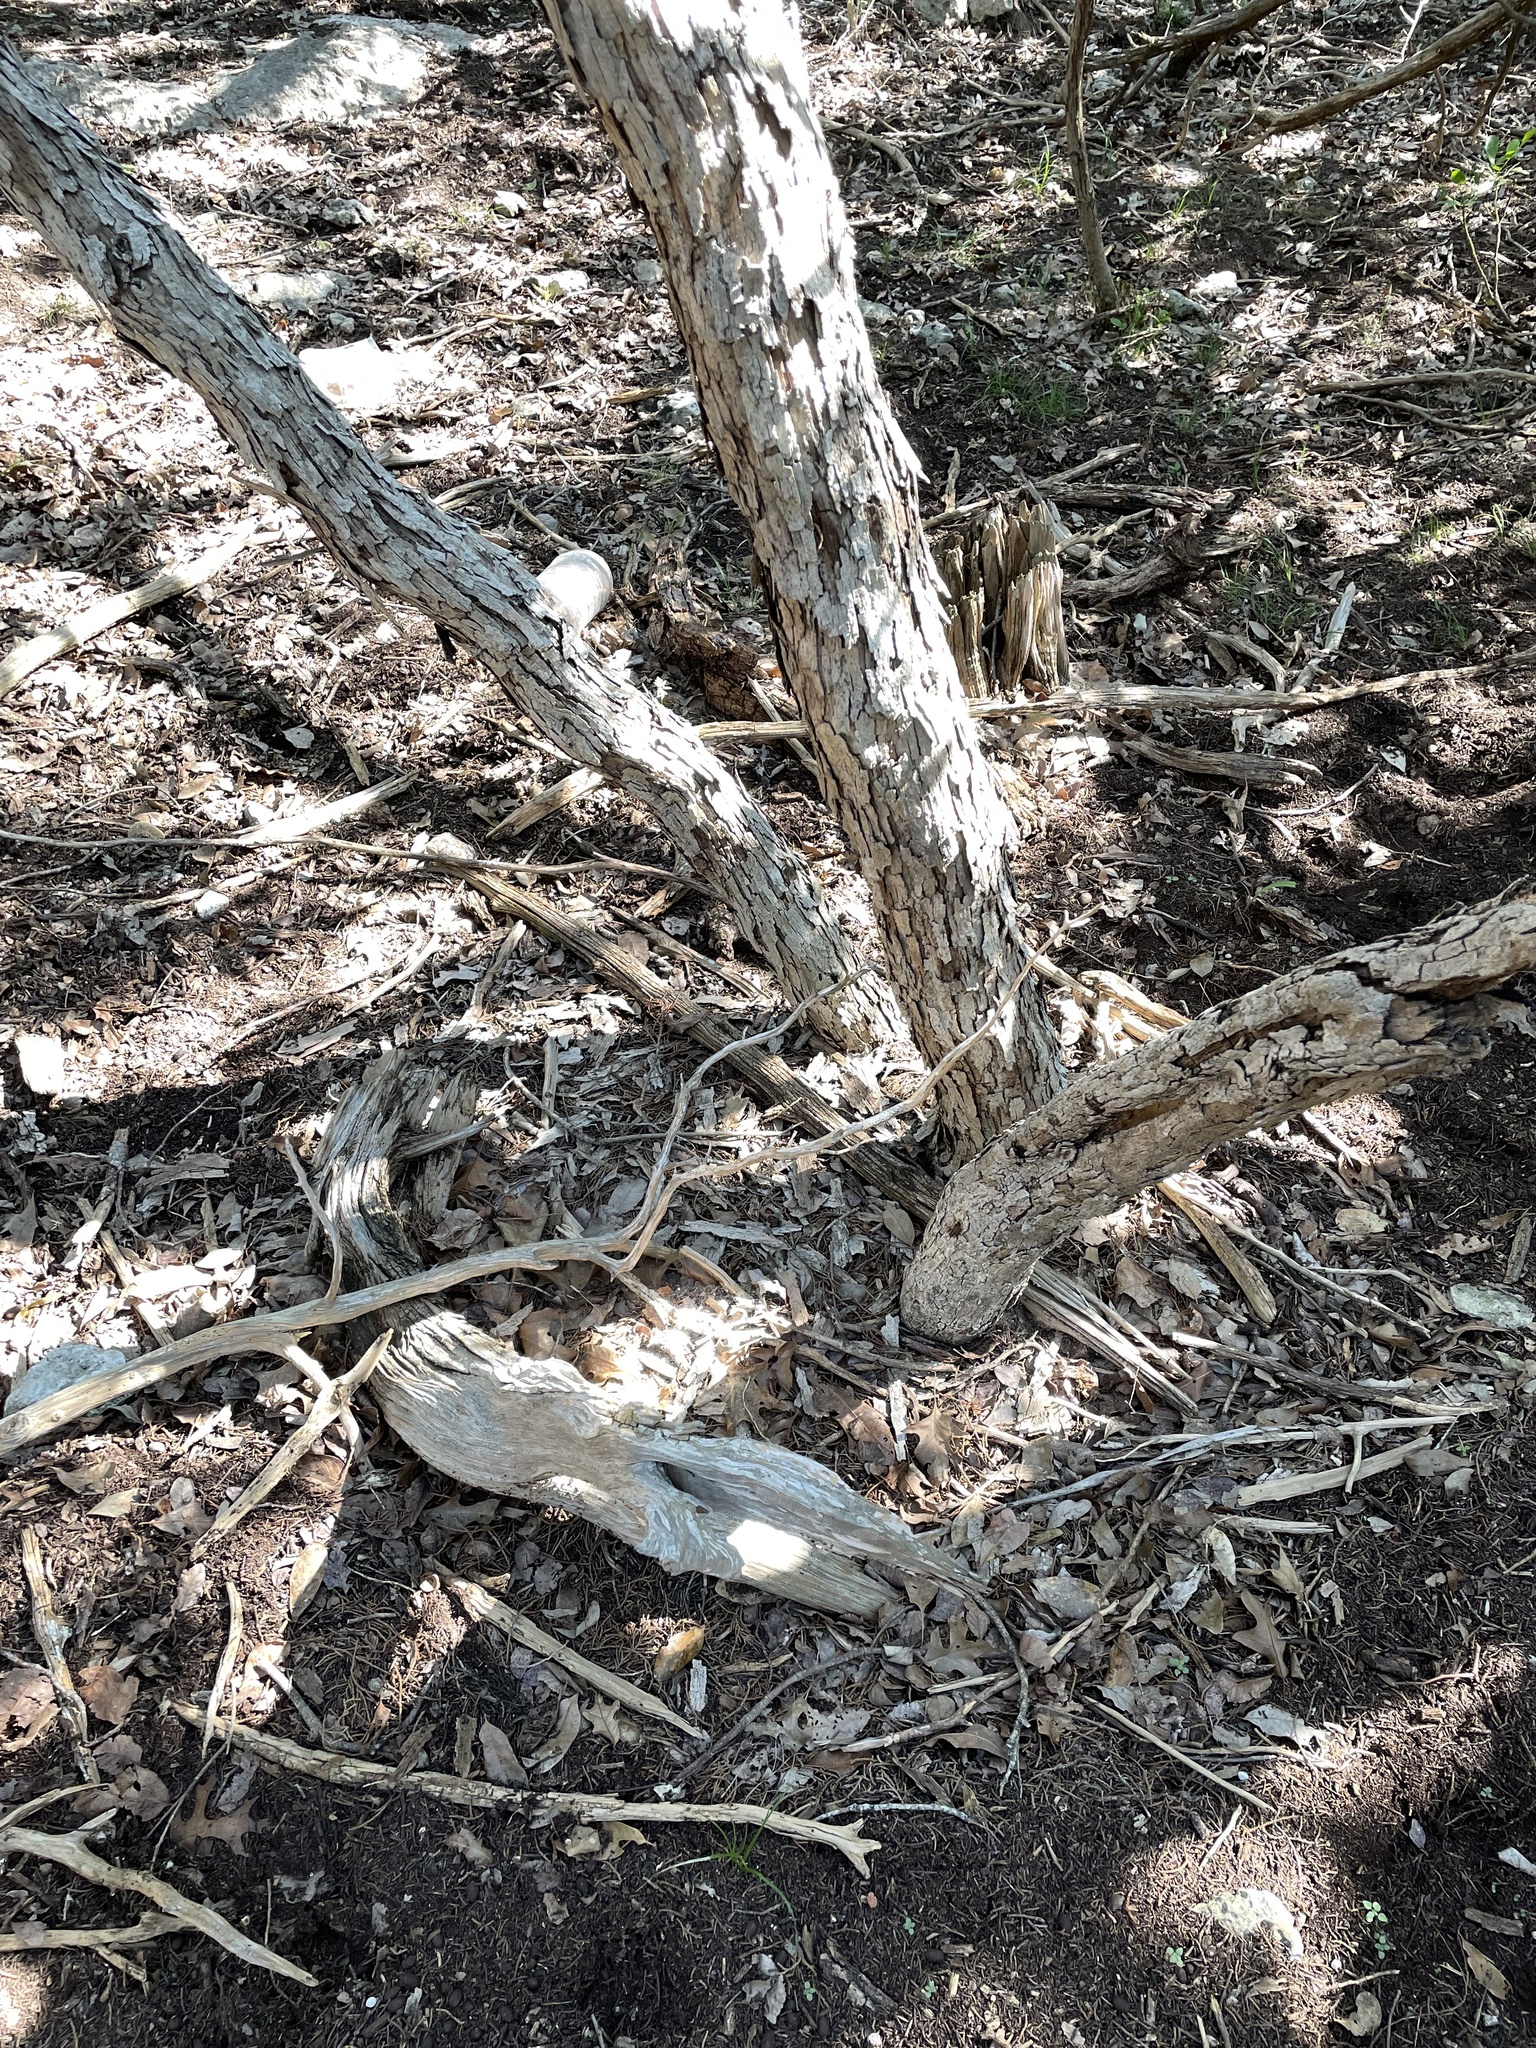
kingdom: Plantae
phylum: Tracheophyta
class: Magnoliopsida
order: Fagales
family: Fagaceae
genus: Quercus
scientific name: Quercus sinuata
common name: Durand oak
